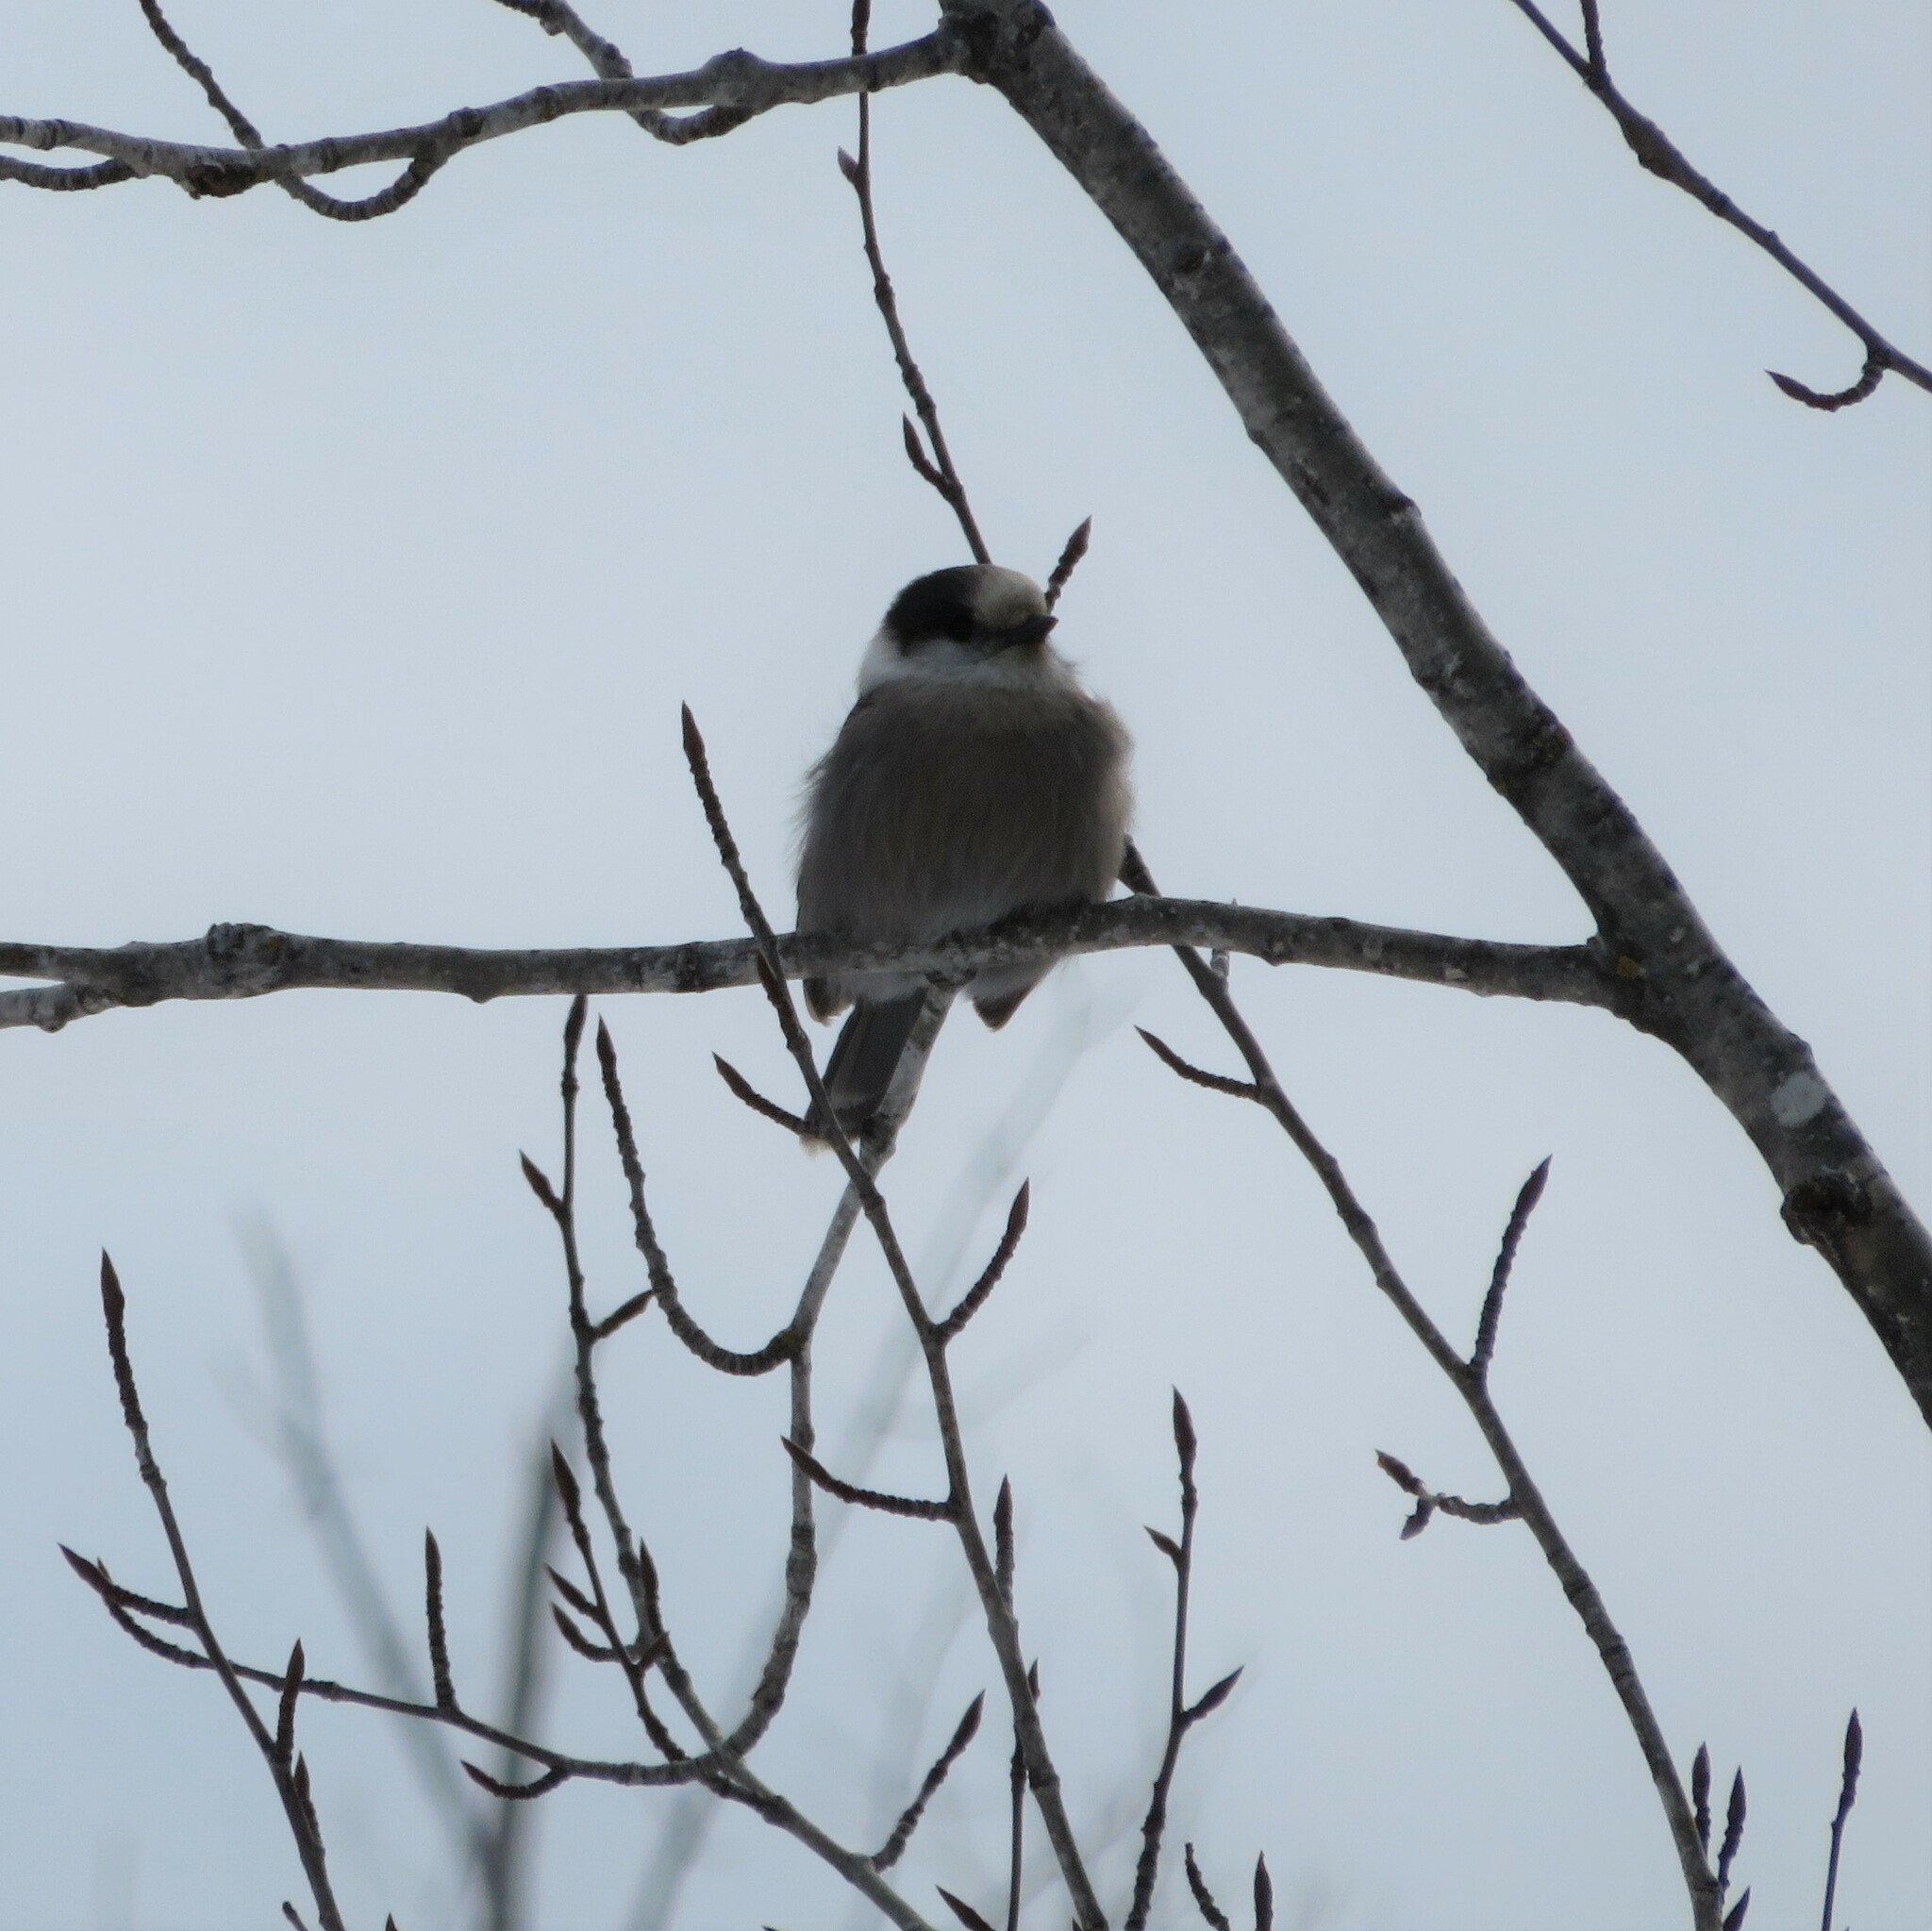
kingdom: Animalia
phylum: Chordata
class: Aves
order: Passeriformes
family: Corvidae
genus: Perisoreus
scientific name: Perisoreus canadensis
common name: Gray jay
